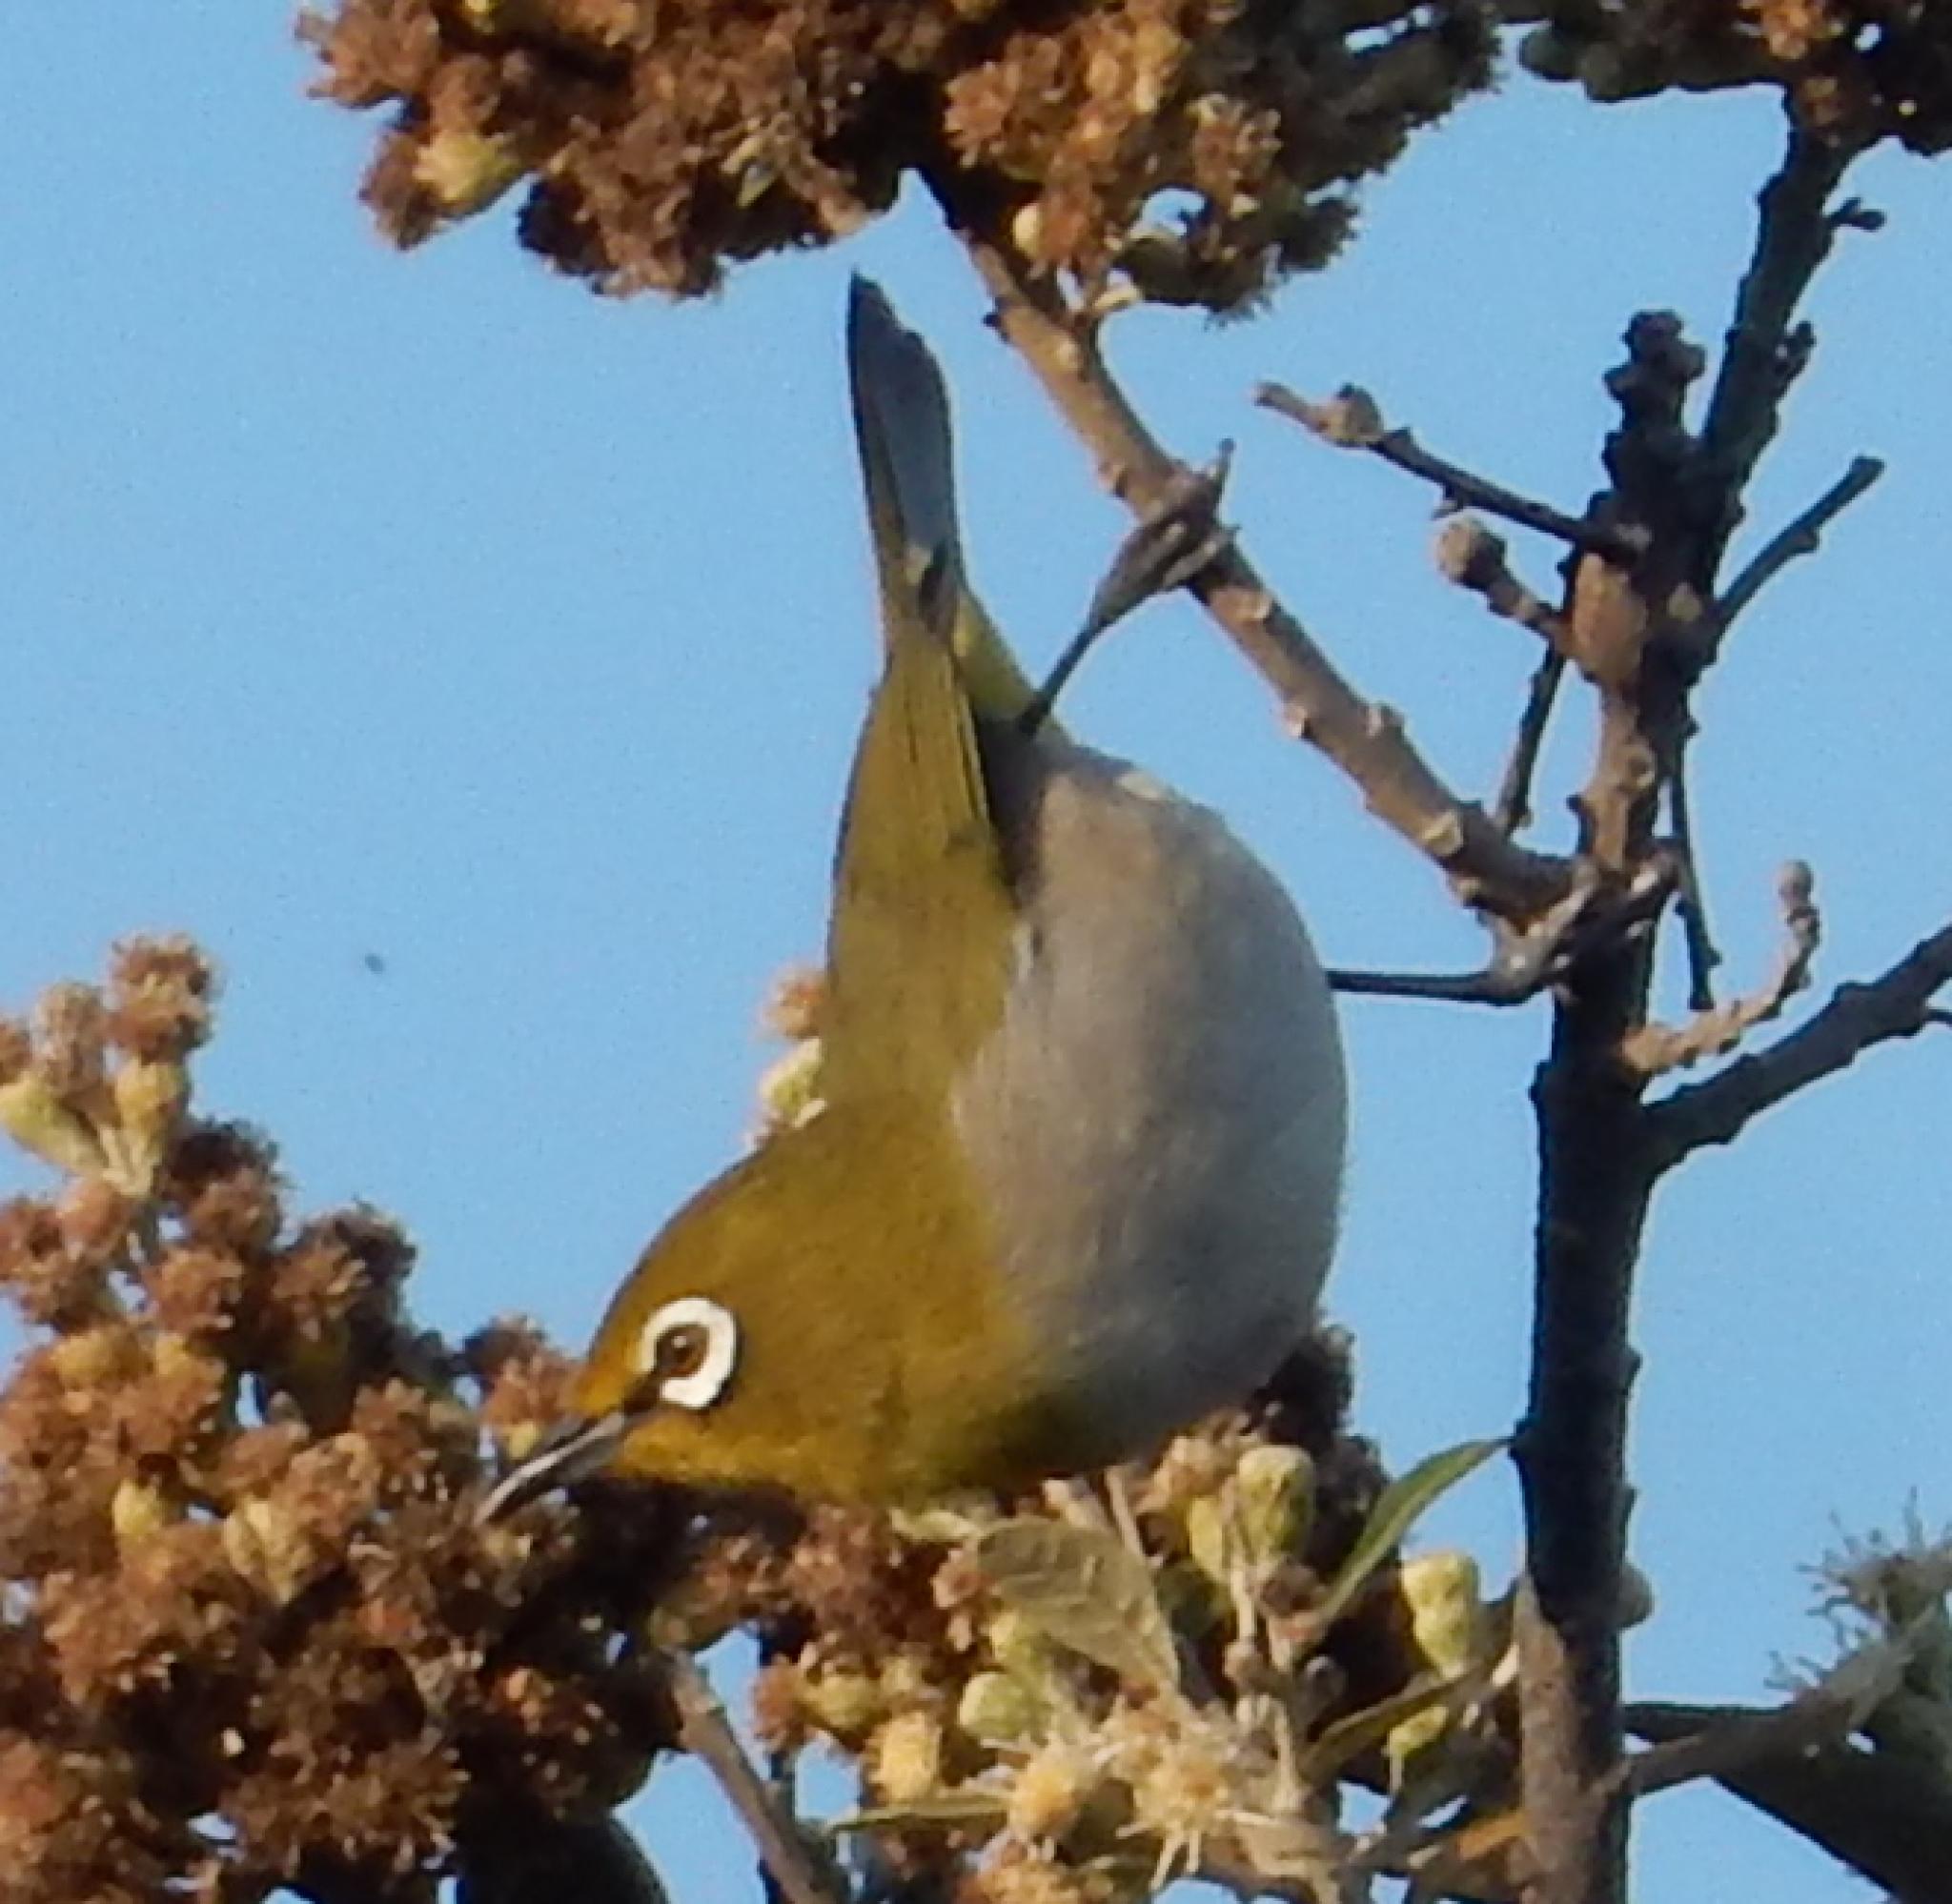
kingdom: Animalia
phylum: Chordata
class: Aves
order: Passeriformes
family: Zosteropidae
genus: Zosterops
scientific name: Zosterops virens
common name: Cape white-eye
